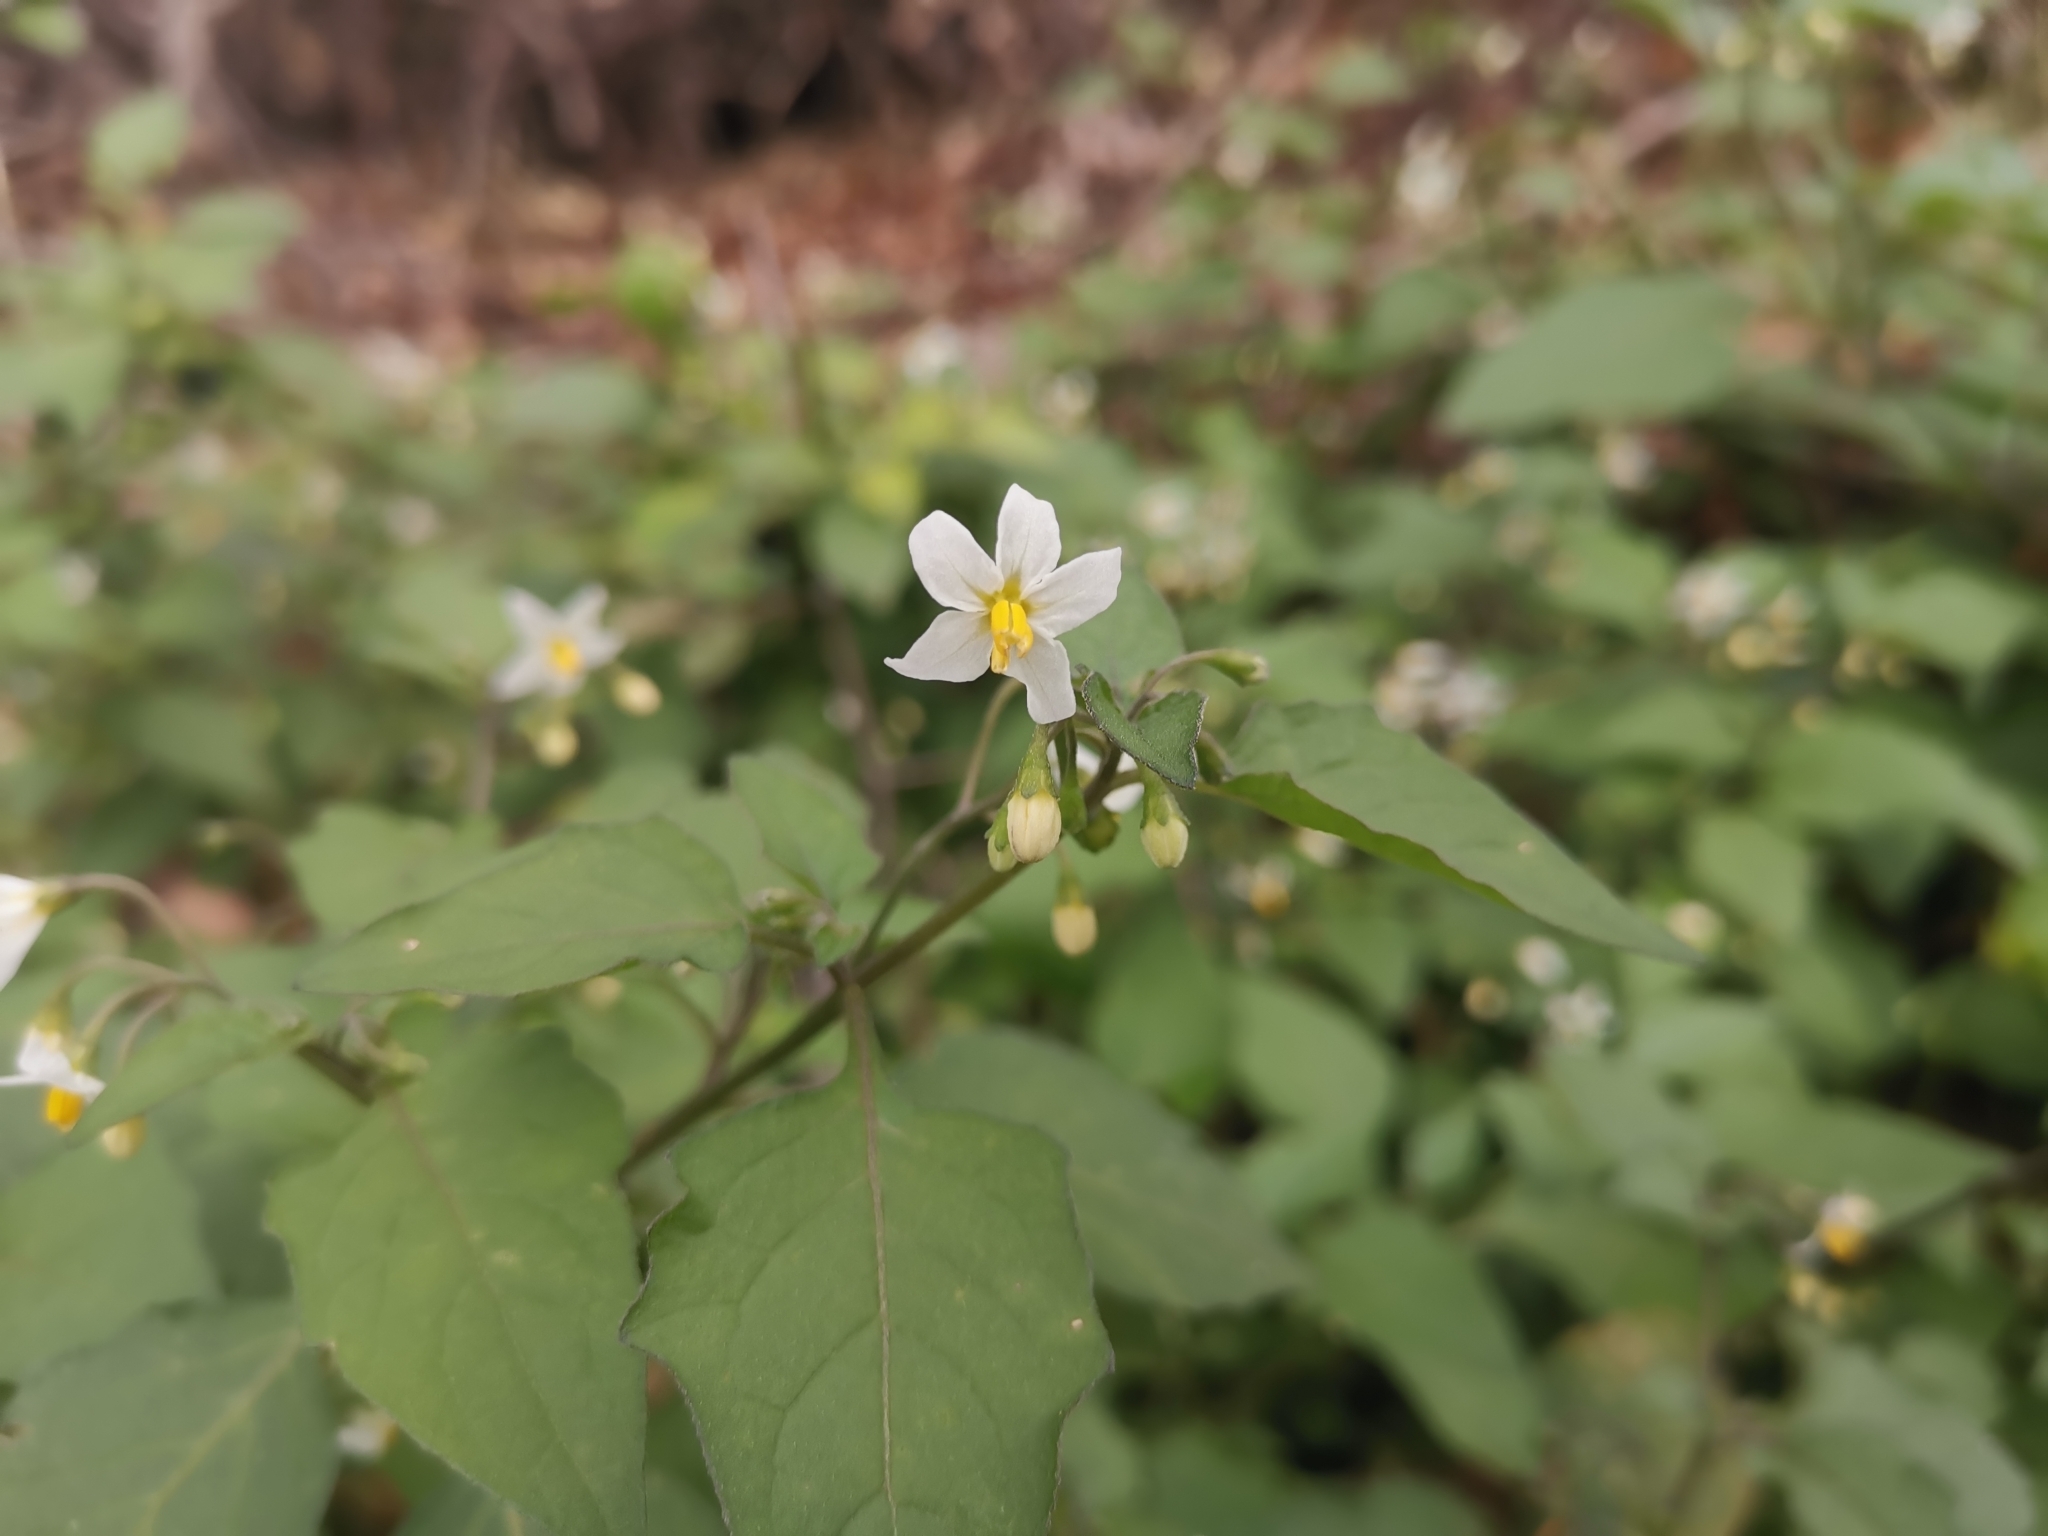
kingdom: Plantae
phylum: Tracheophyta
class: Magnoliopsida
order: Solanales
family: Solanaceae
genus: Solanum
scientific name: Solanum nigrum
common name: Black nightshade
